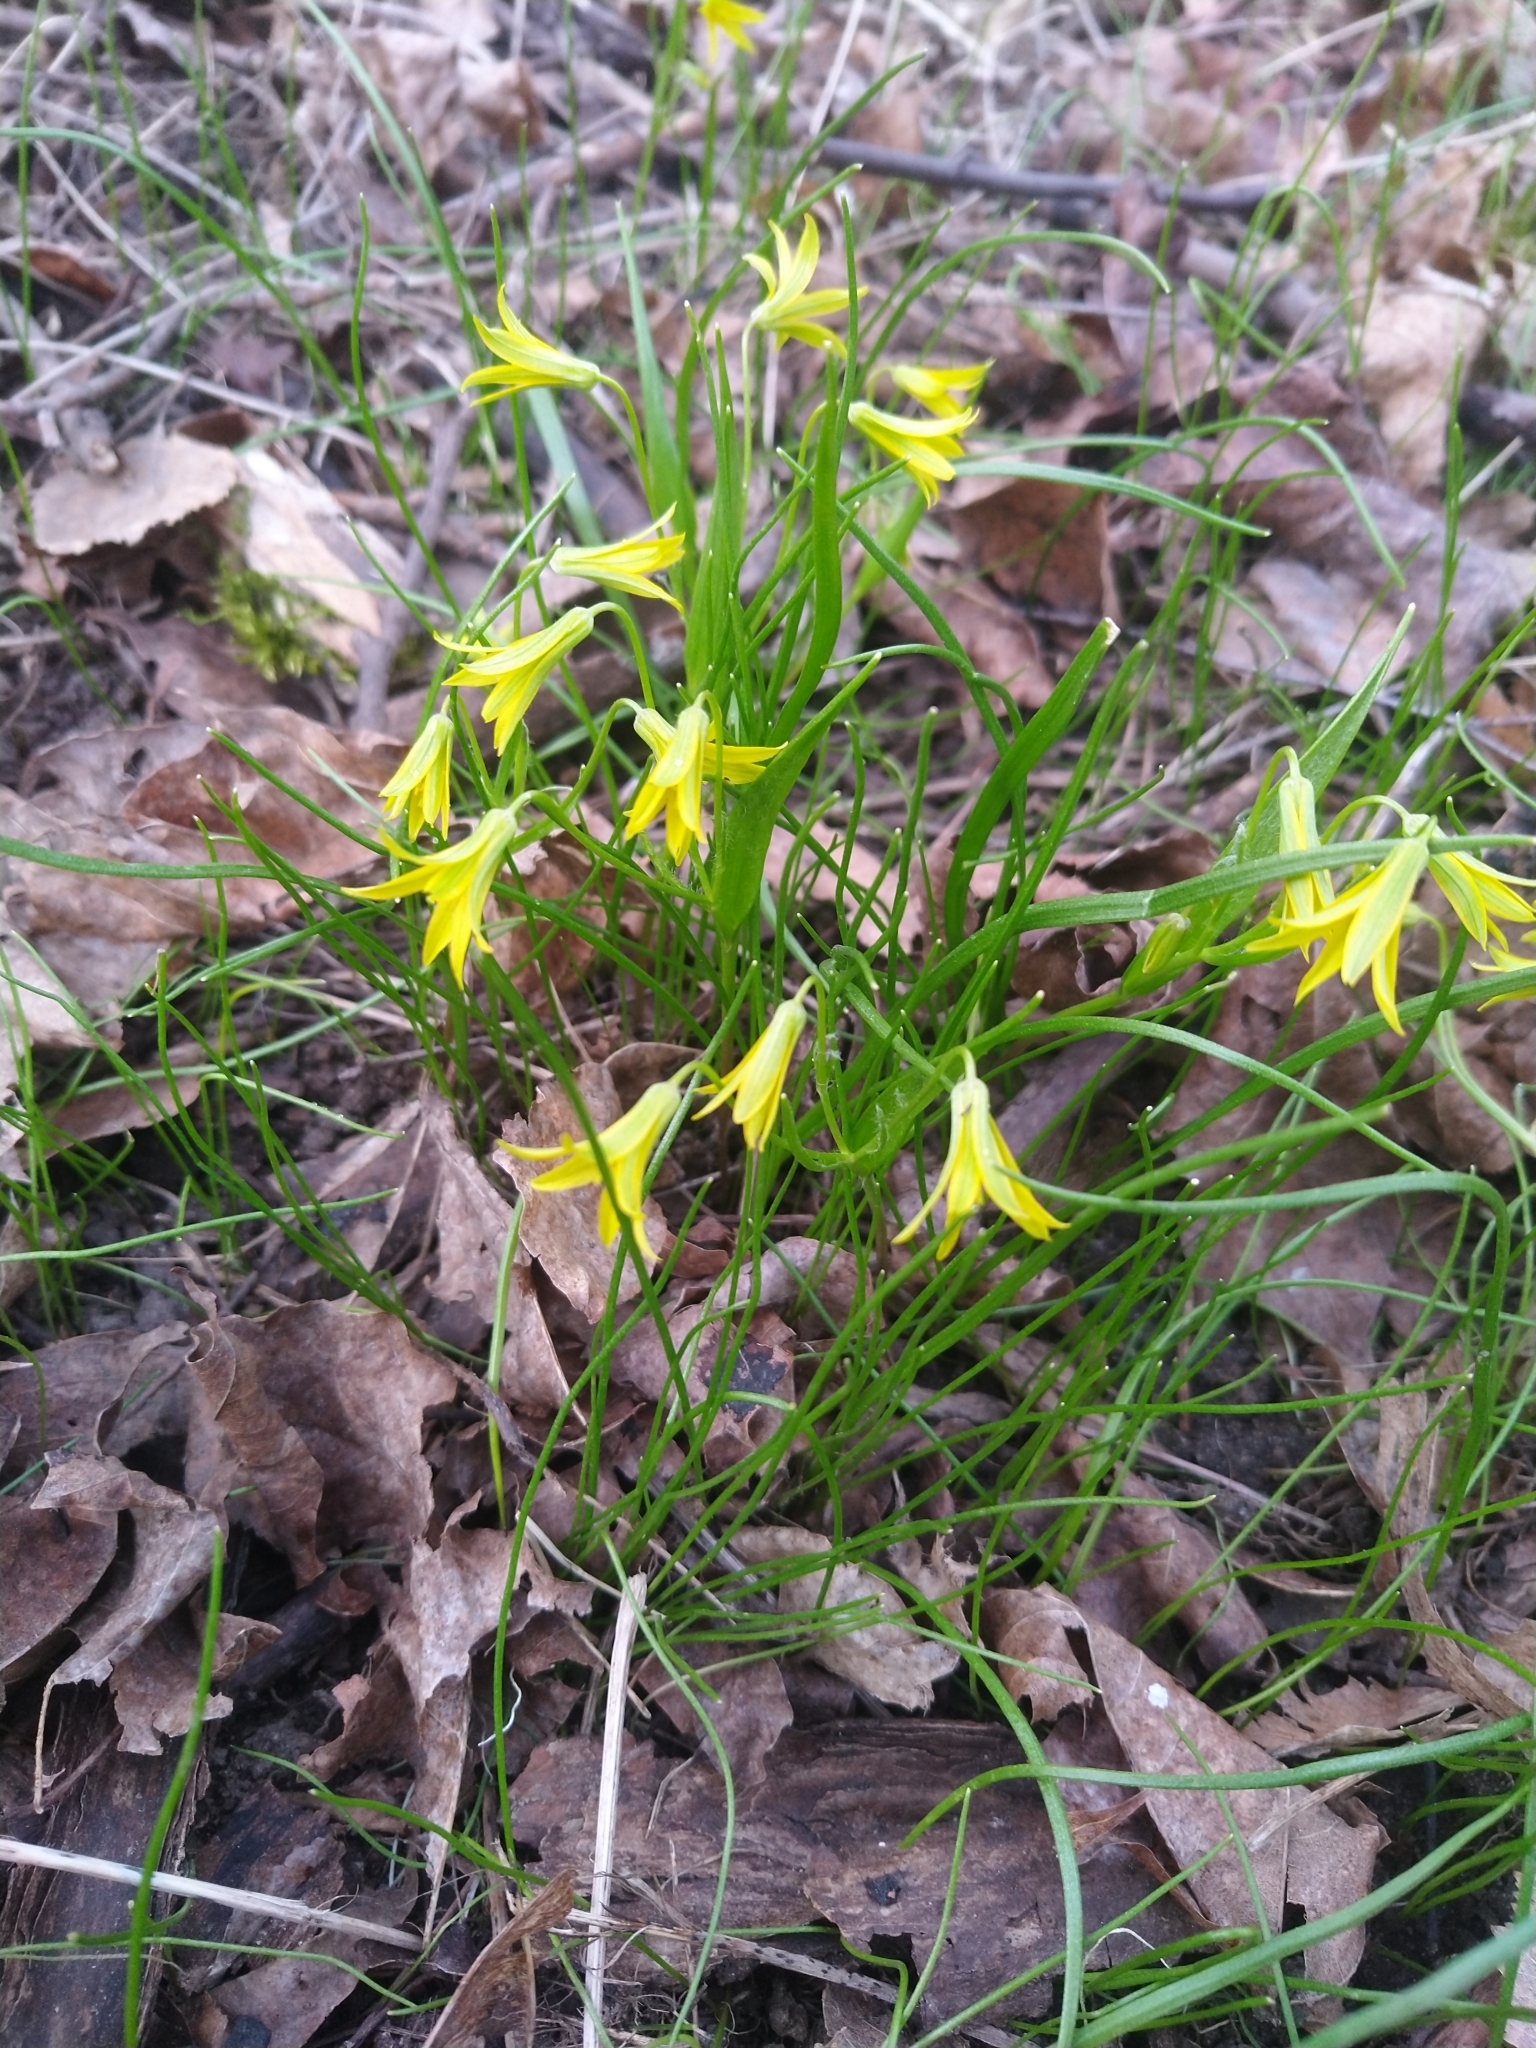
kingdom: Plantae
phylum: Tracheophyta
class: Liliopsida
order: Liliales
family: Liliaceae
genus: Gagea
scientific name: Gagea minima
